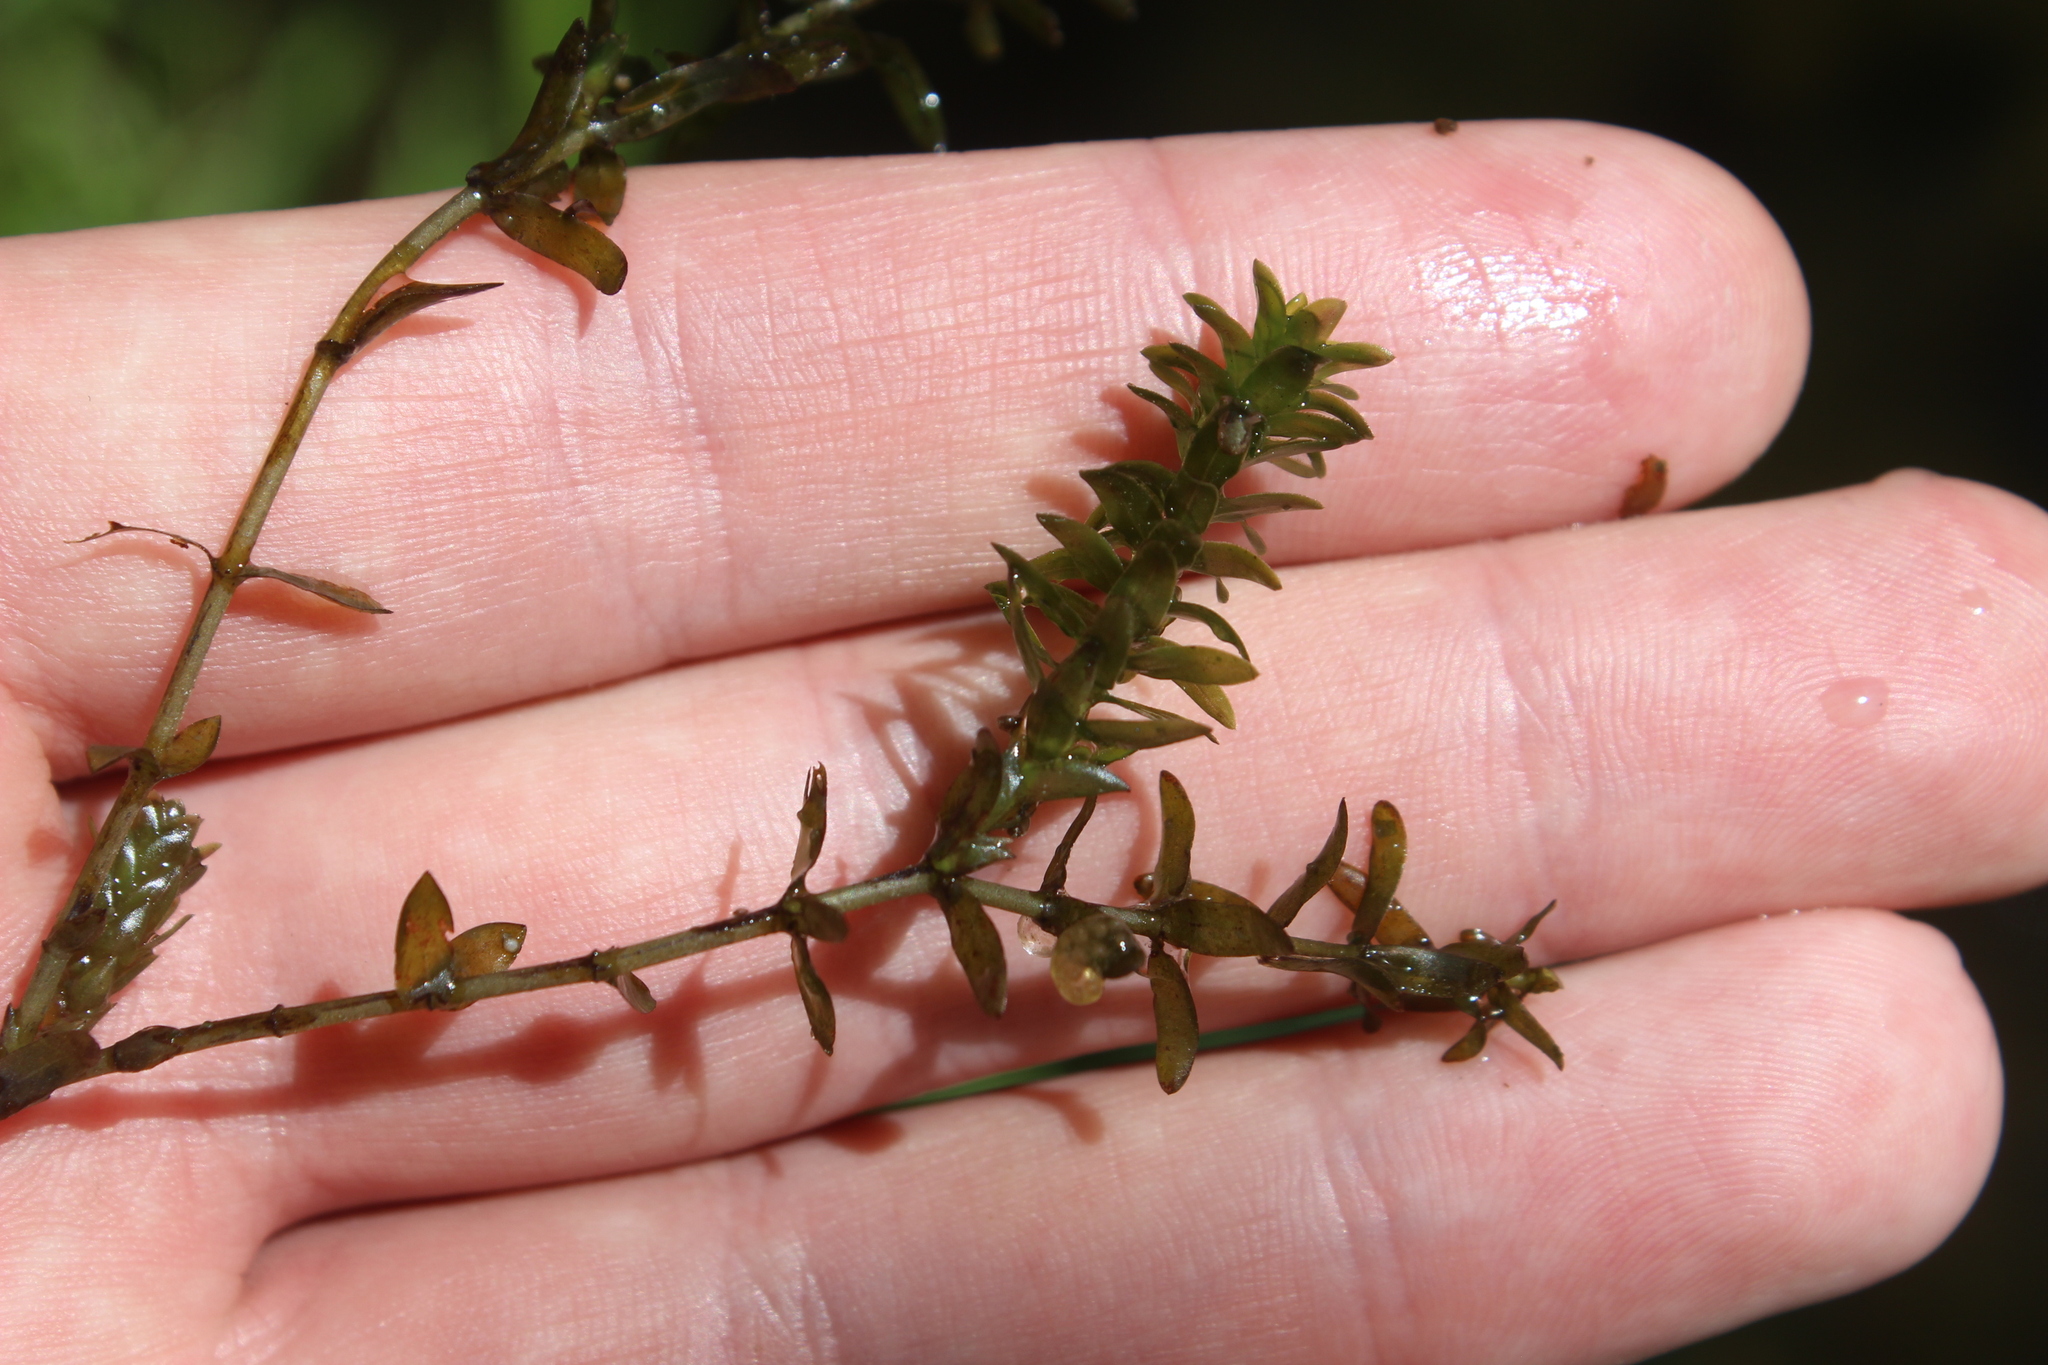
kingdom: Plantae
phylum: Tracheophyta
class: Liliopsida
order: Alismatales
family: Hydrocharitaceae
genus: Elodea
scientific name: Elodea canadensis
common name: Canadian waterweed
